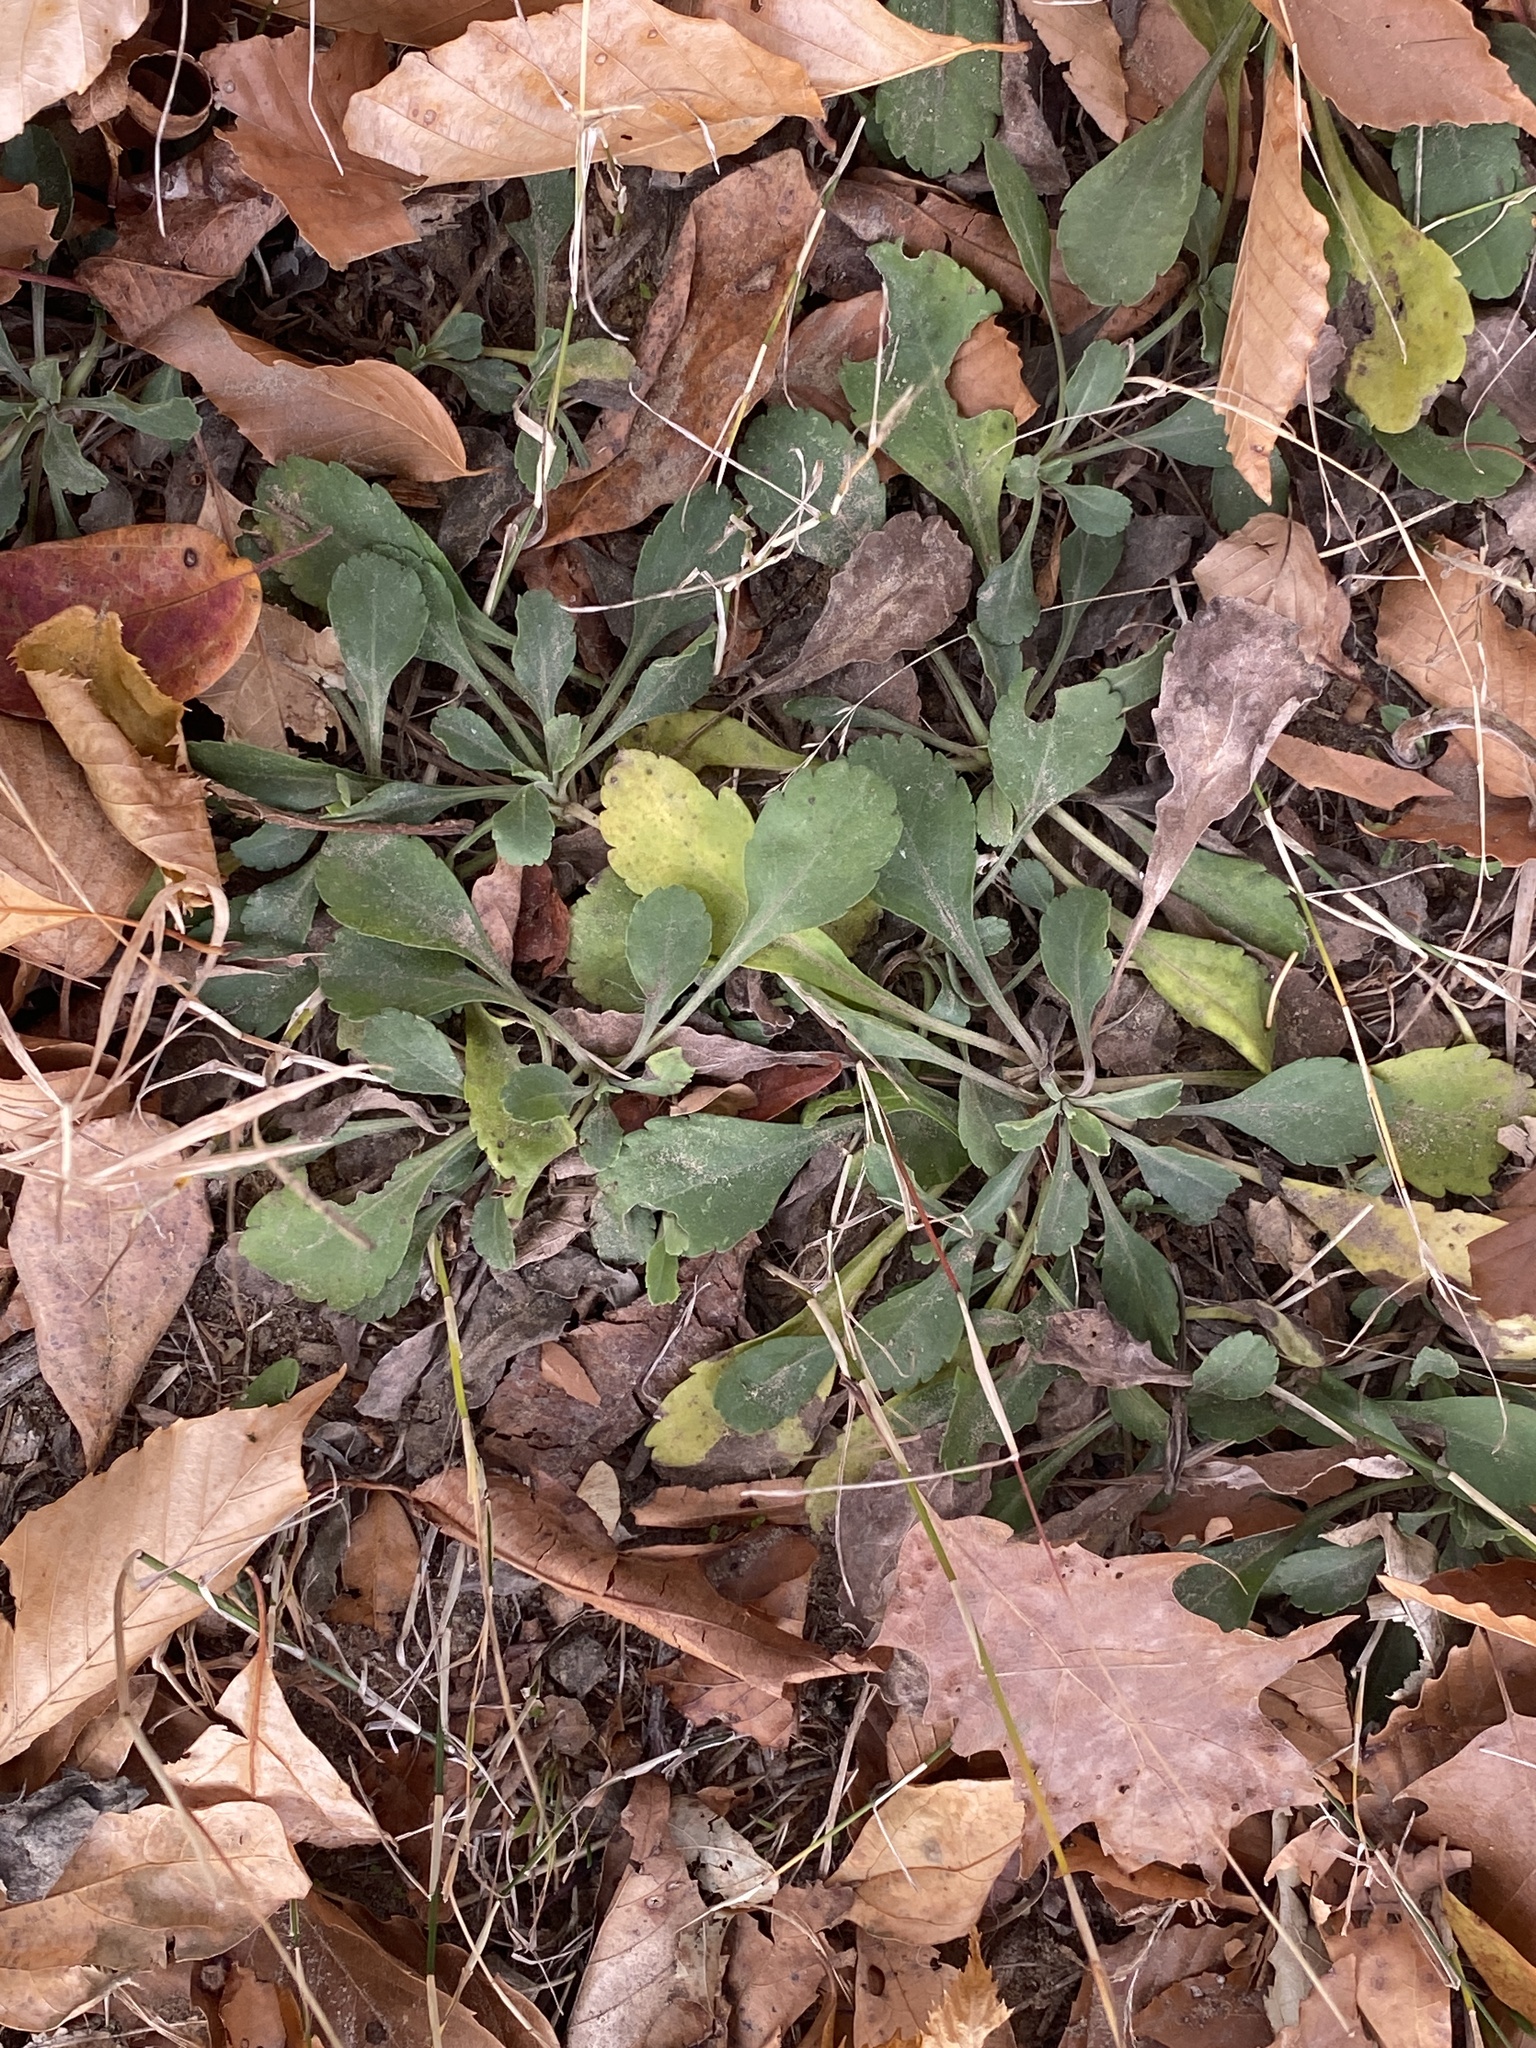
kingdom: Plantae
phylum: Tracheophyta
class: Magnoliopsida
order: Asterales
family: Asteraceae
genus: Leucanthemum
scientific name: Leucanthemum vulgare
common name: Oxeye daisy
